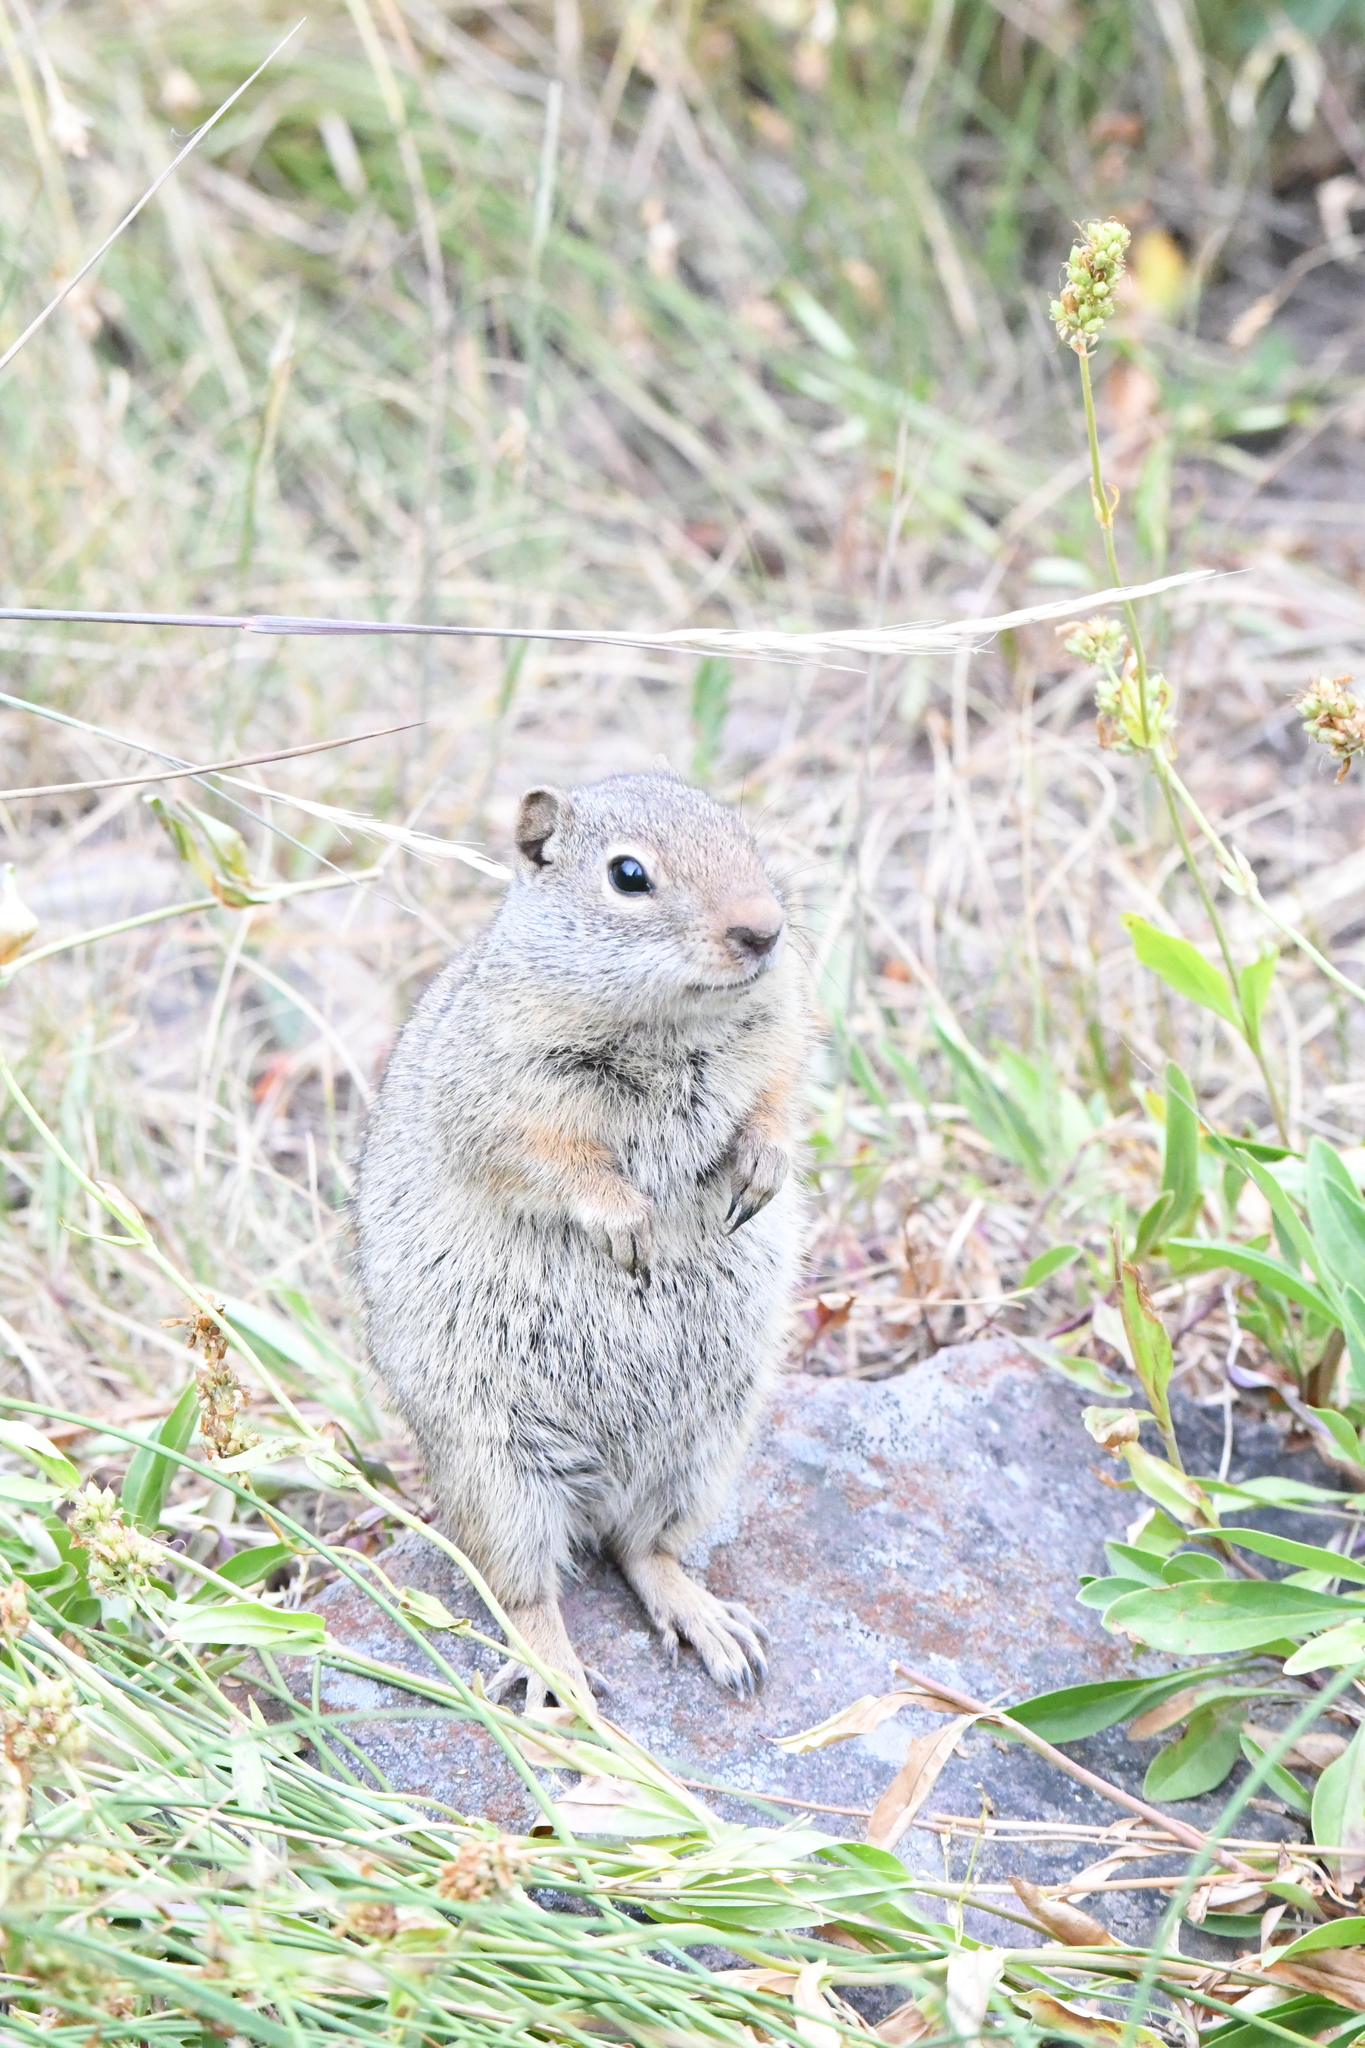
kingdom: Animalia
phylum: Chordata
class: Mammalia
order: Rodentia
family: Sciuridae
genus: Urocitellus
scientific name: Urocitellus armatus
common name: Uinta ground squirrel
